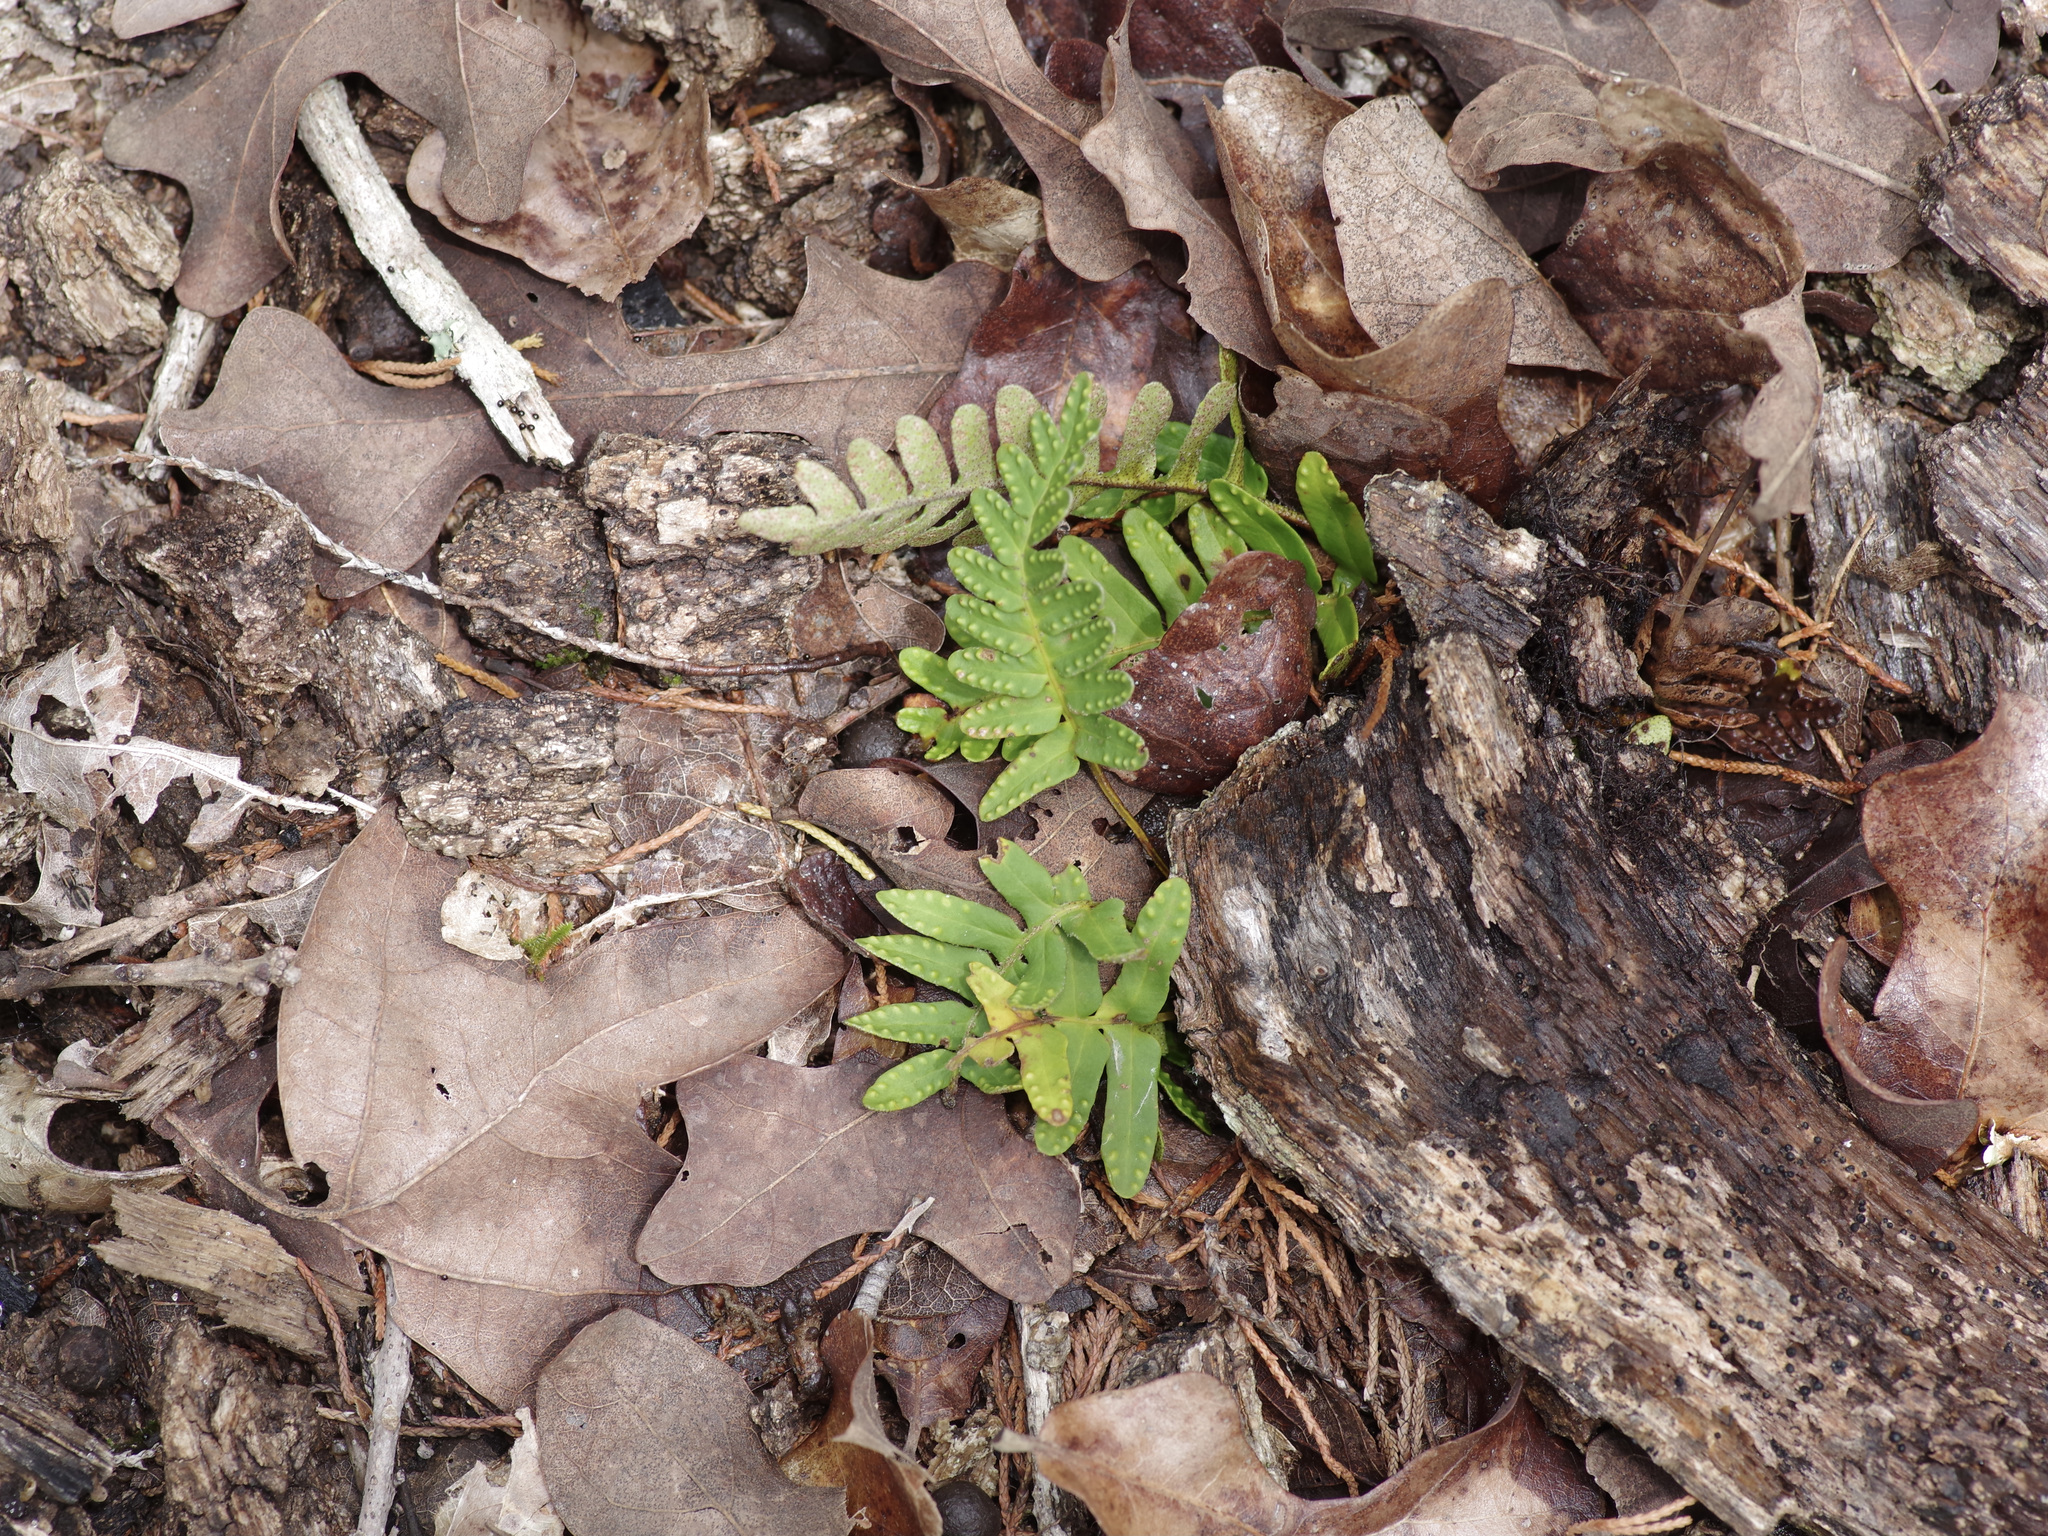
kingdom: Plantae
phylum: Tracheophyta
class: Polypodiopsida
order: Polypodiales
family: Polypodiaceae
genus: Pleopeltis
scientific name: Pleopeltis michauxiana
